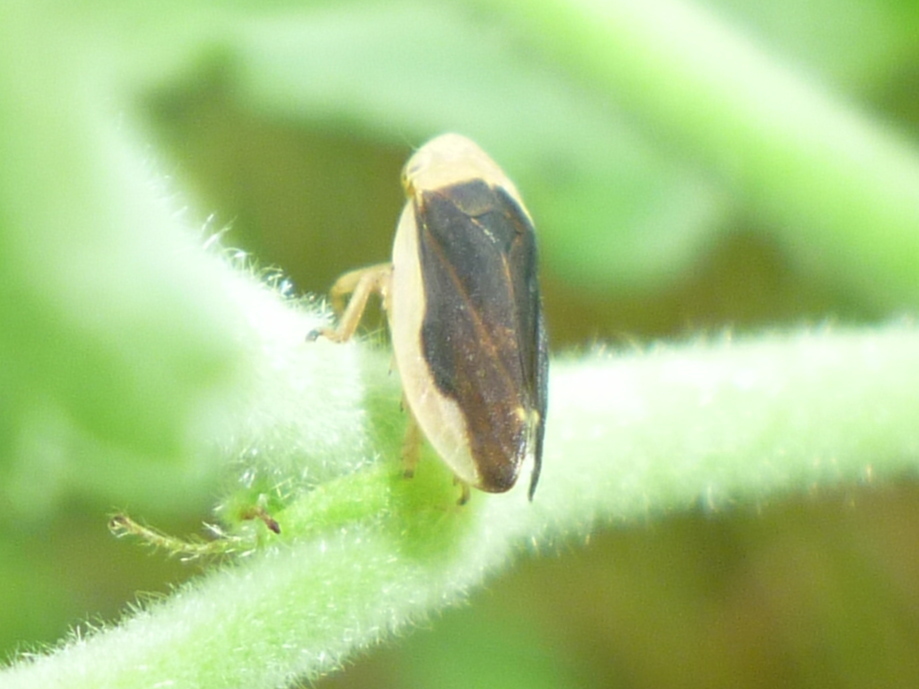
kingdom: Animalia
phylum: Arthropoda
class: Insecta
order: Hemiptera
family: Aphrophoridae
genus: Philaenus
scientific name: Philaenus spumarius
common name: Meadow spittlebug
